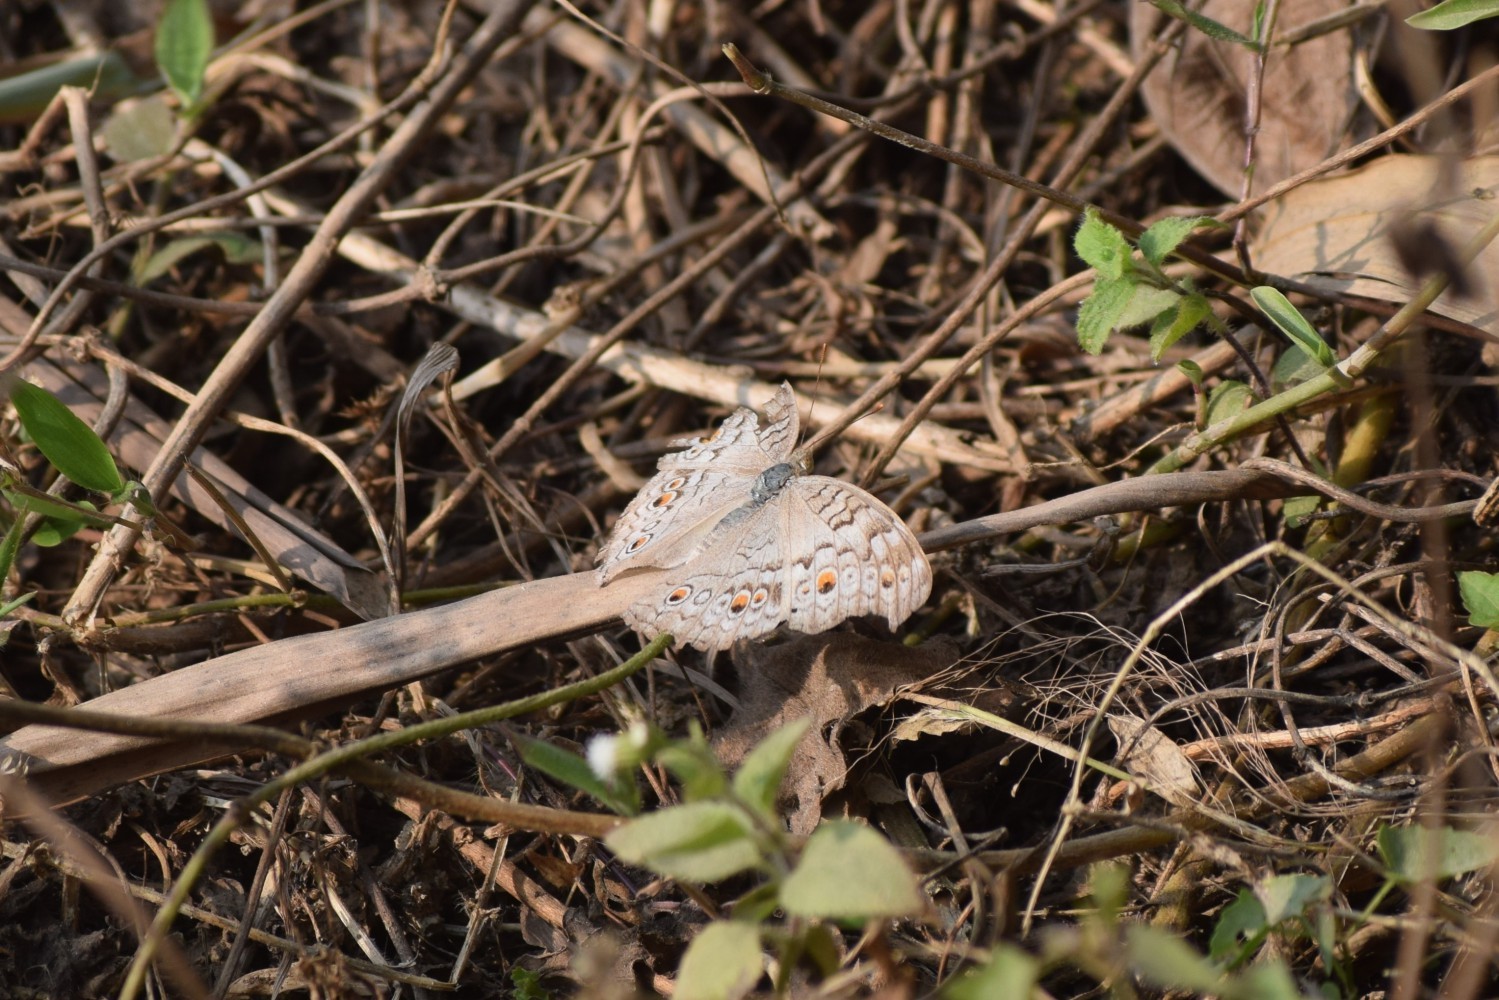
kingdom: Animalia
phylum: Arthropoda
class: Insecta
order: Lepidoptera
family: Nymphalidae
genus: Junonia
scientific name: Junonia atlites
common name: Grey pansy
